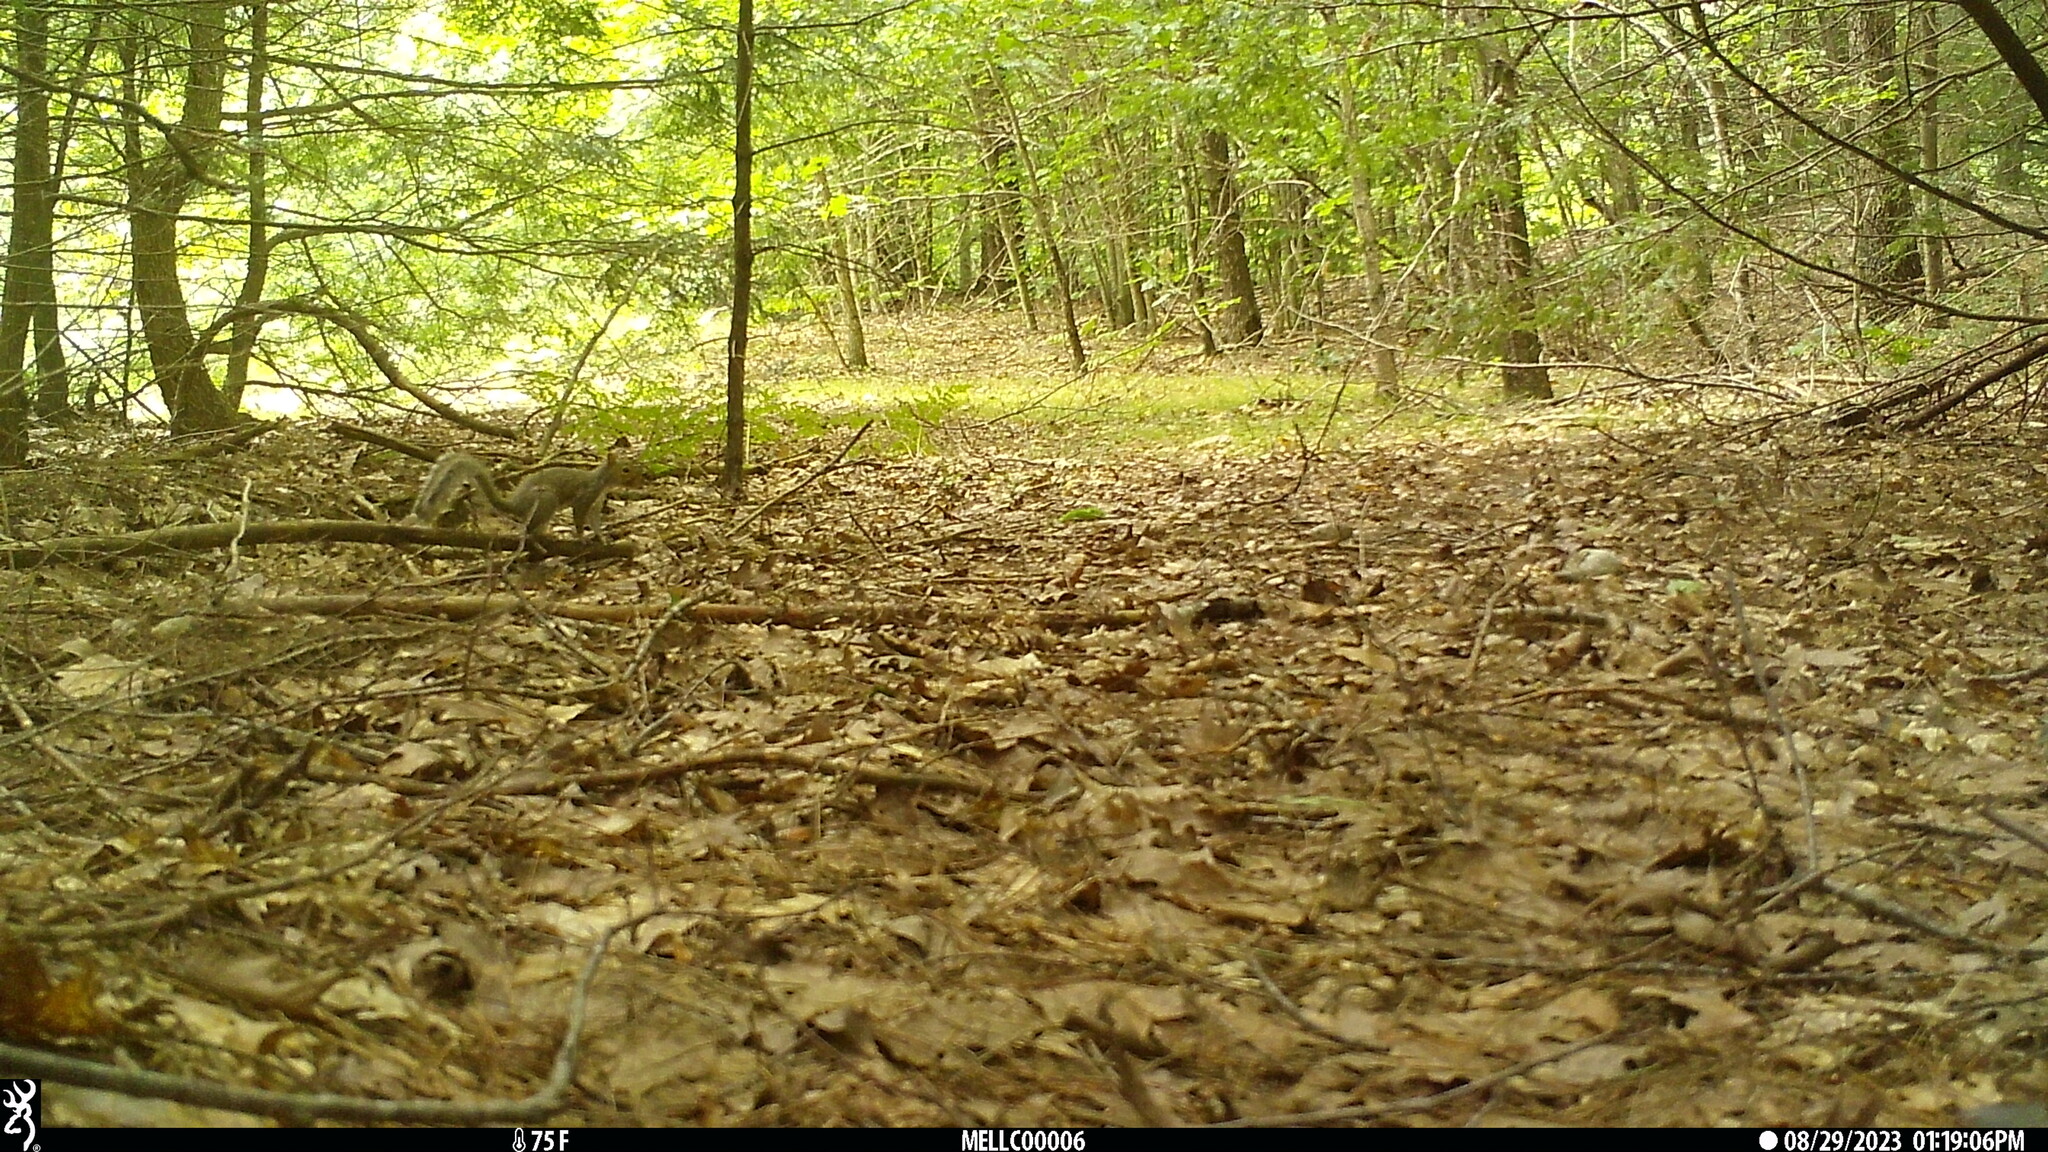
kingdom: Animalia
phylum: Chordata
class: Mammalia
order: Rodentia
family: Sciuridae
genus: Sciurus
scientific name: Sciurus carolinensis
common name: Eastern gray squirrel
